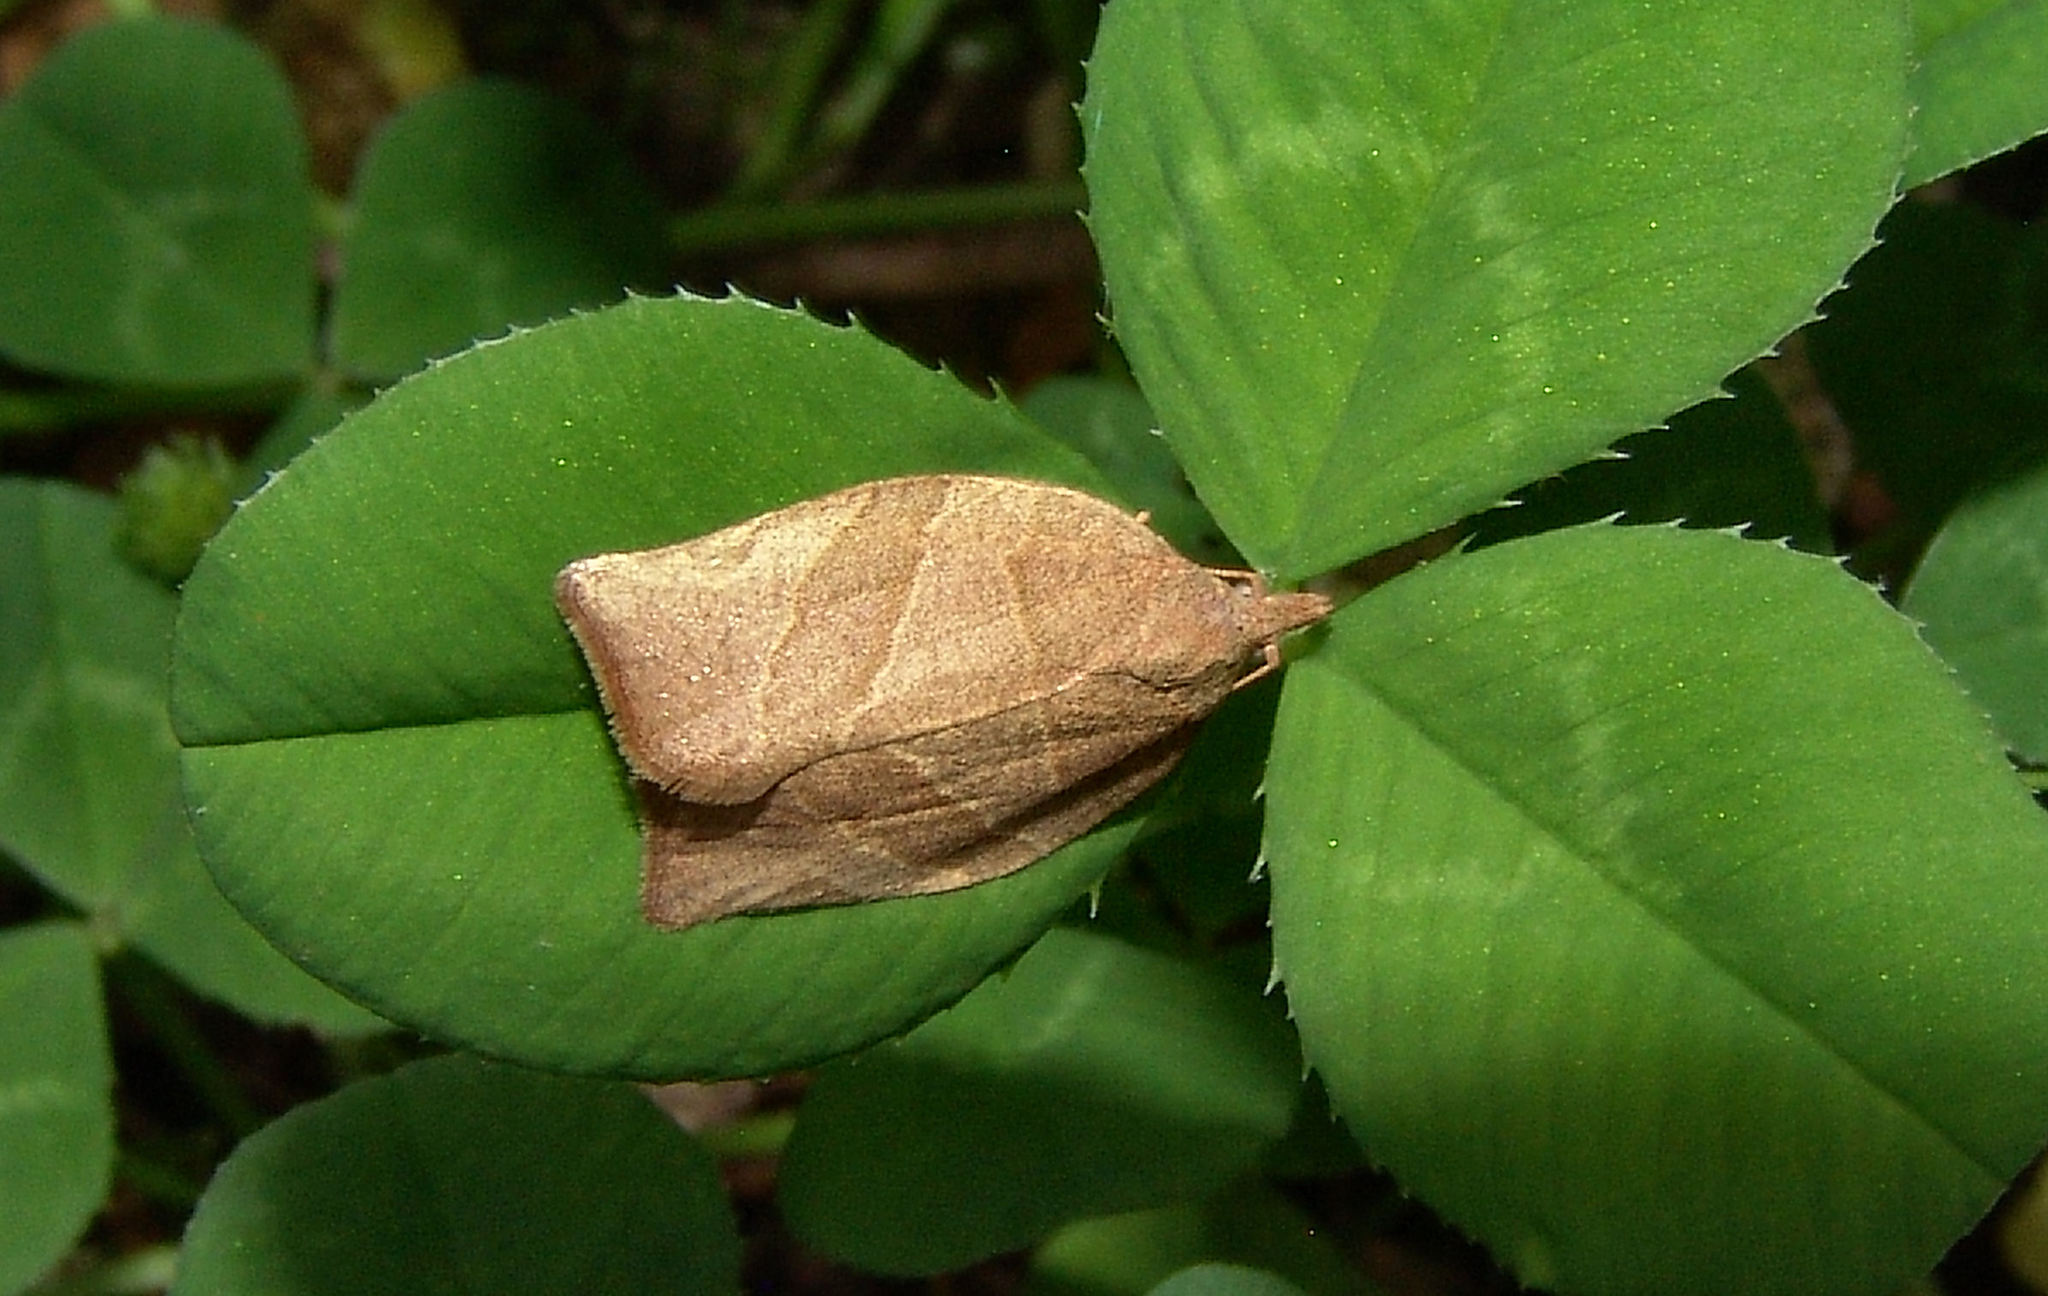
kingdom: Animalia
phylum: Arthropoda
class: Insecta
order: Lepidoptera
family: Tortricidae
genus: Pandemis
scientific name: Pandemis limitata
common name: Three-lined leafroller moth
